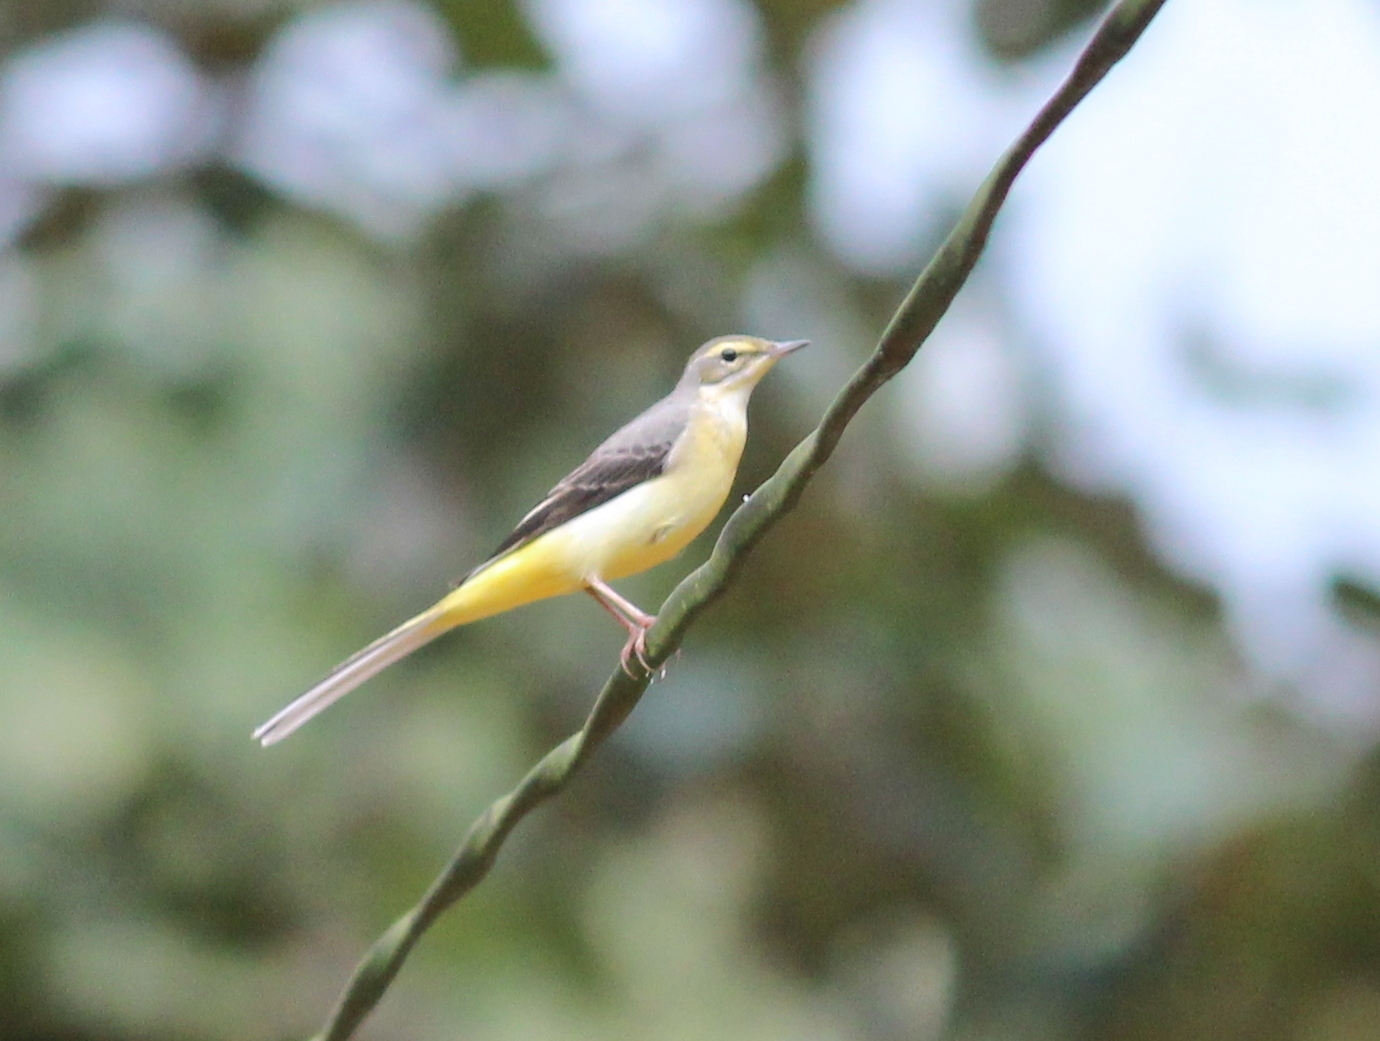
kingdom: Animalia
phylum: Chordata
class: Aves
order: Passeriformes
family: Motacillidae
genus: Motacilla
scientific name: Motacilla cinerea
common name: Grey wagtail
